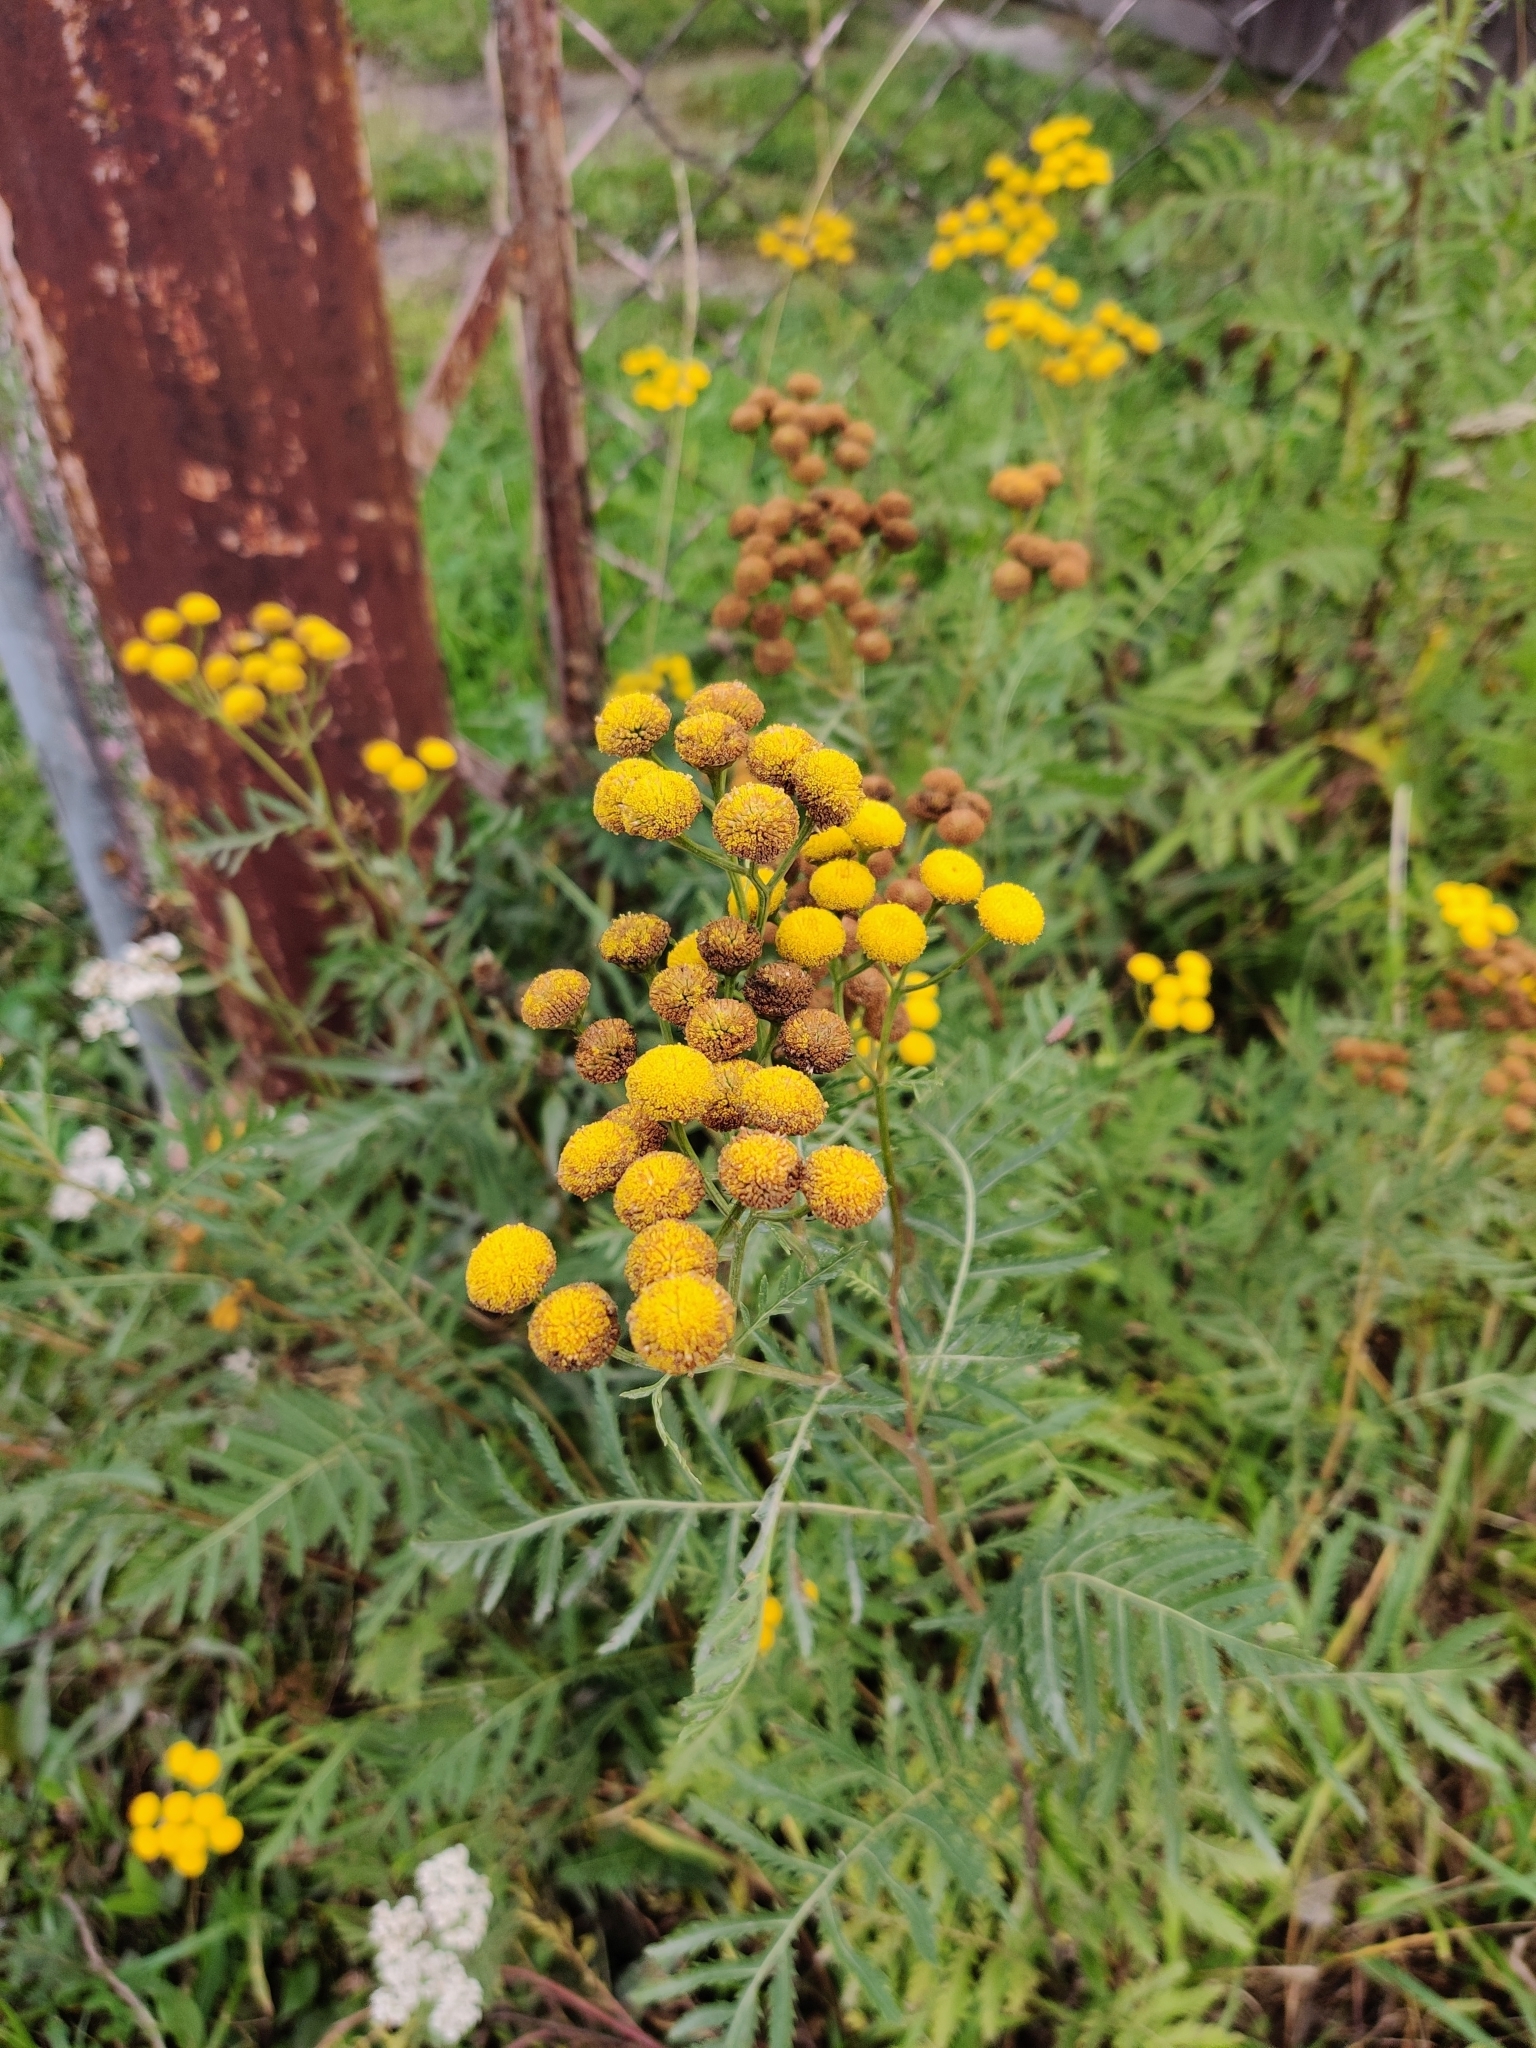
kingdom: Plantae
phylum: Tracheophyta
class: Magnoliopsida
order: Asterales
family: Asteraceae
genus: Tanacetum
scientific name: Tanacetum vulgare
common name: Common tansy
